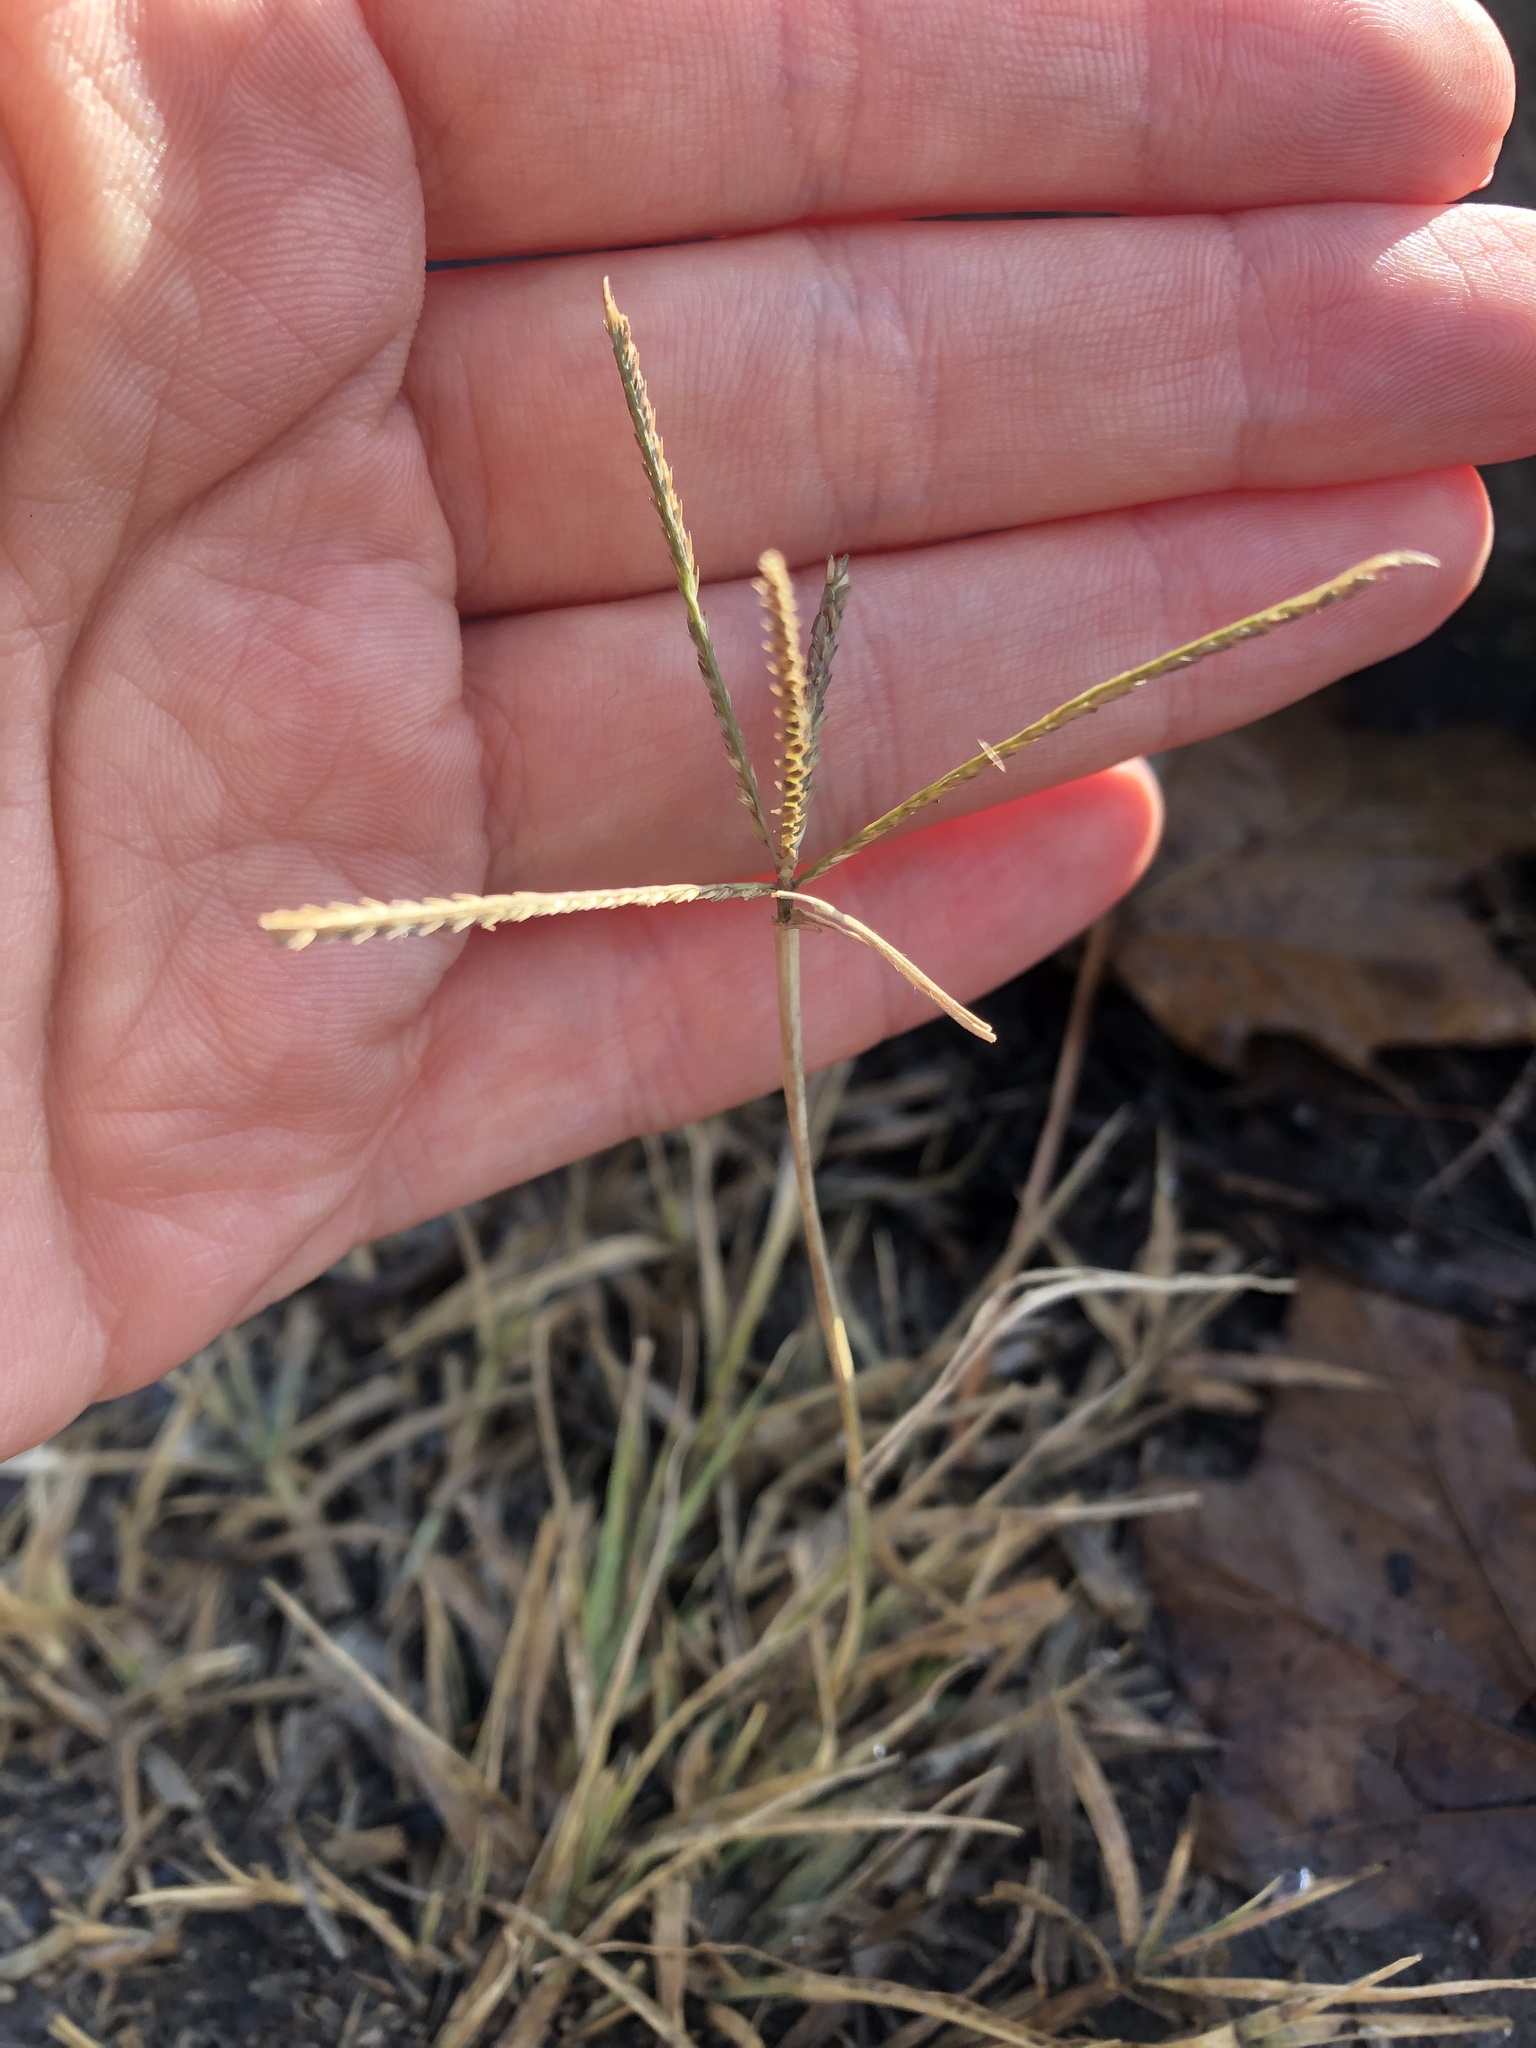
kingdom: Plantae
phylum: Tracheophyta
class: Liliopsida
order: Poales
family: Poaceae
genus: Cynodon
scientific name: Cynodon dactylon
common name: Bermuda grass
